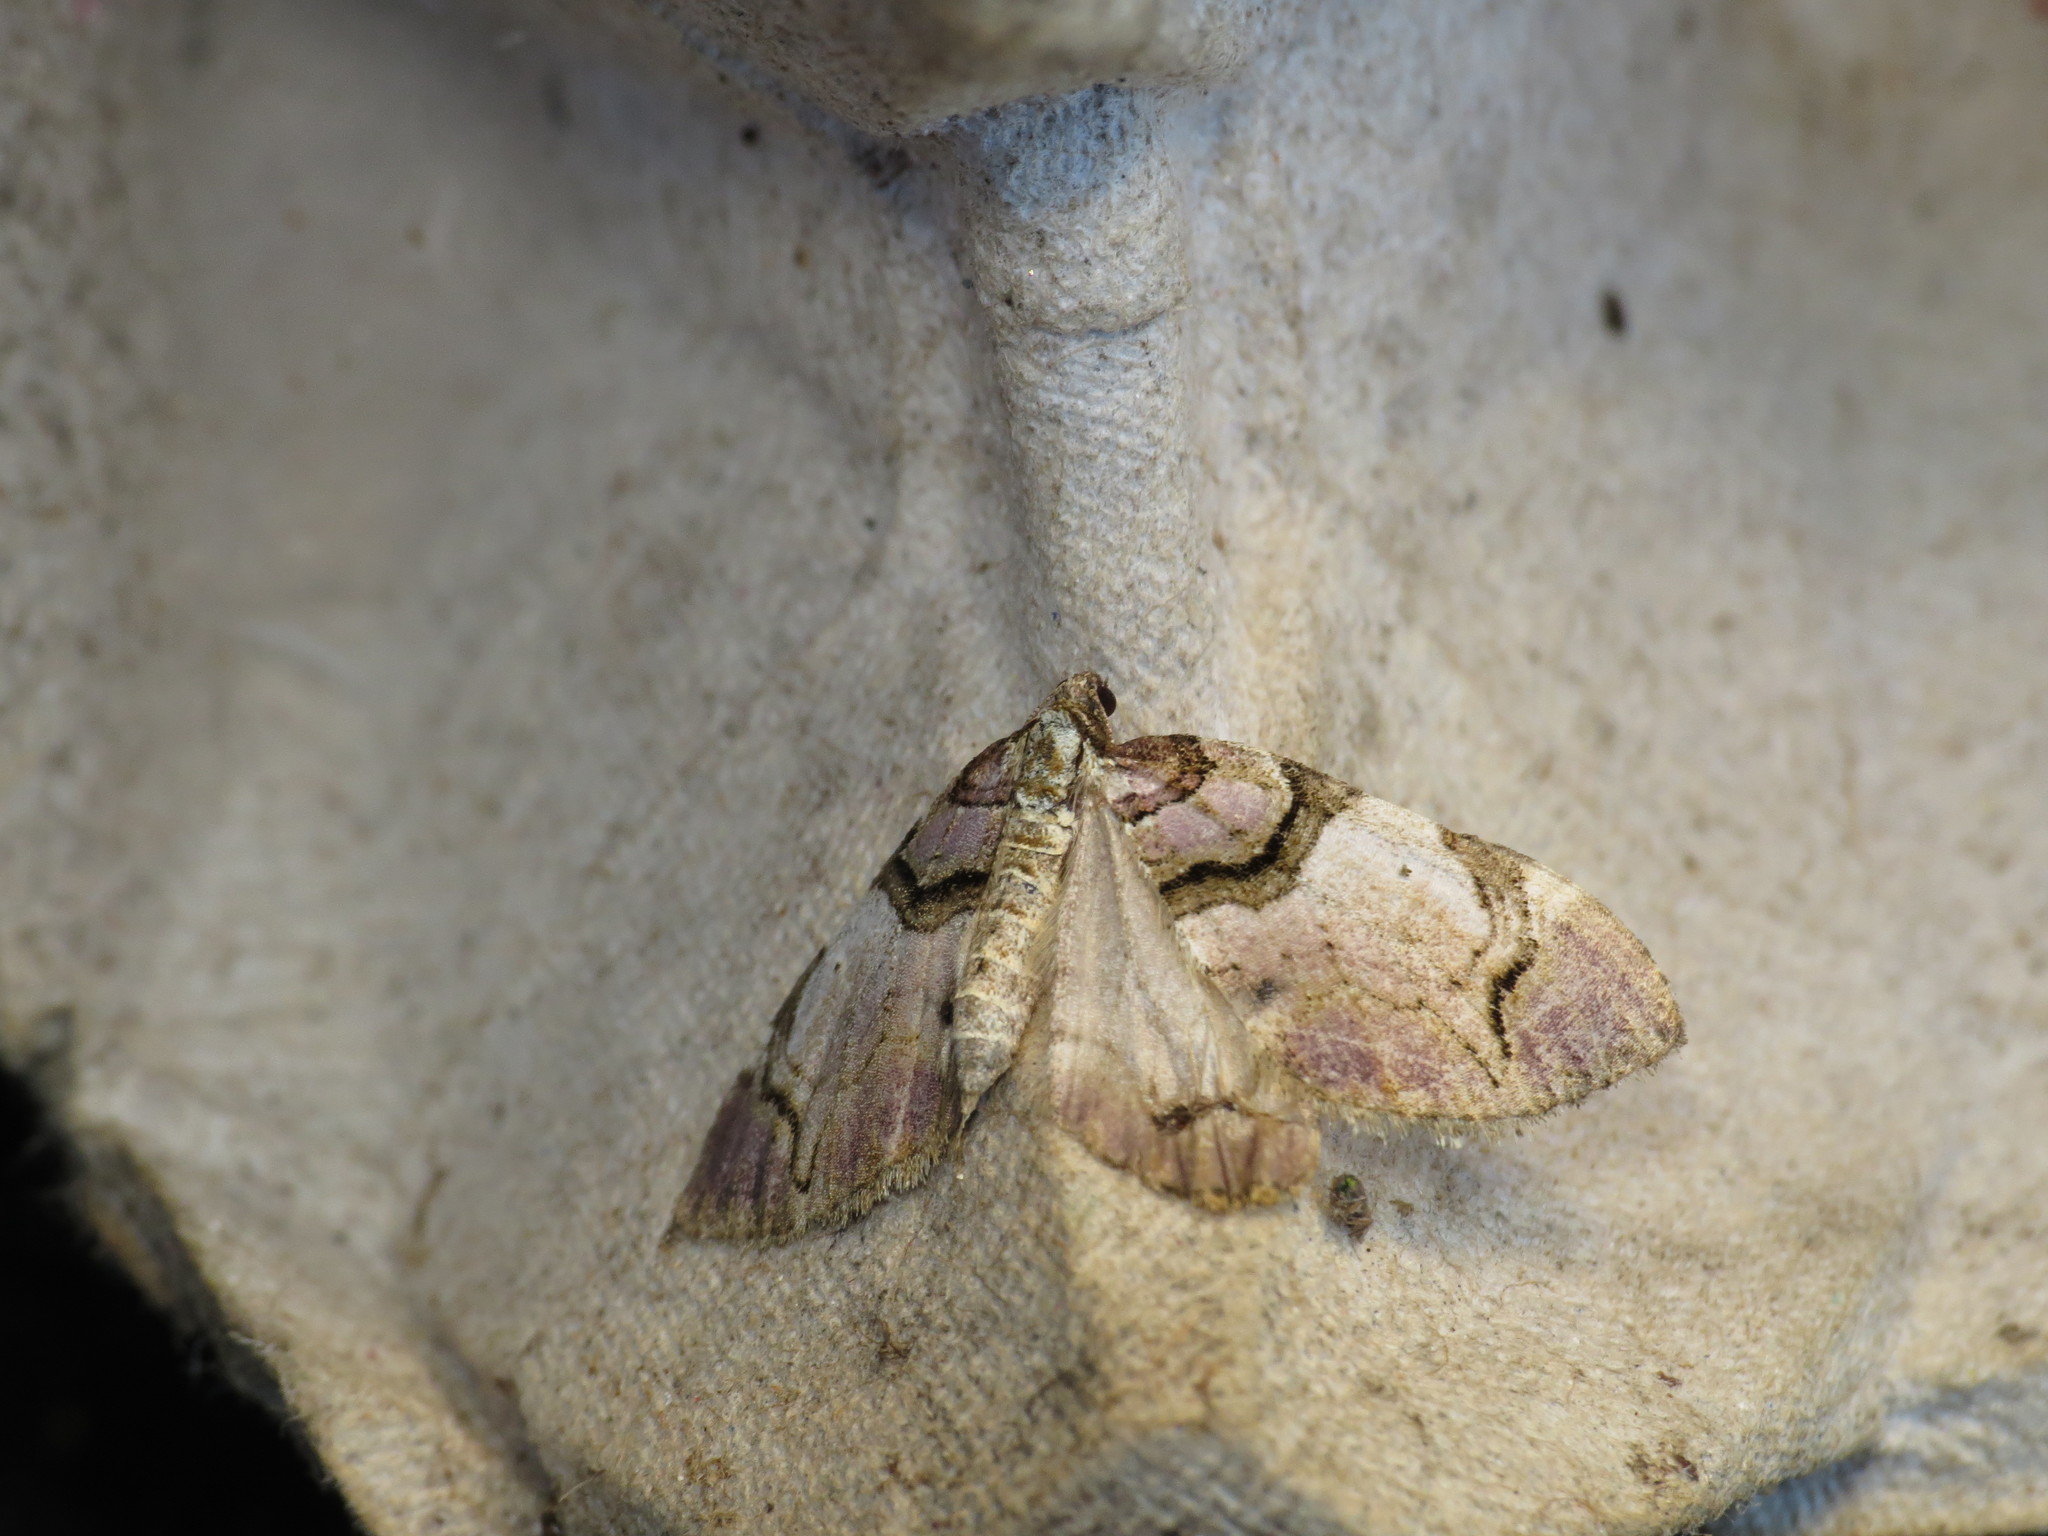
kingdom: Animalia
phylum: Arthropoda
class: Insecta
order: Lepidoptera
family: Geometridae
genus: Anticlea
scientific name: Anticlea derivata
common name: Streamer
